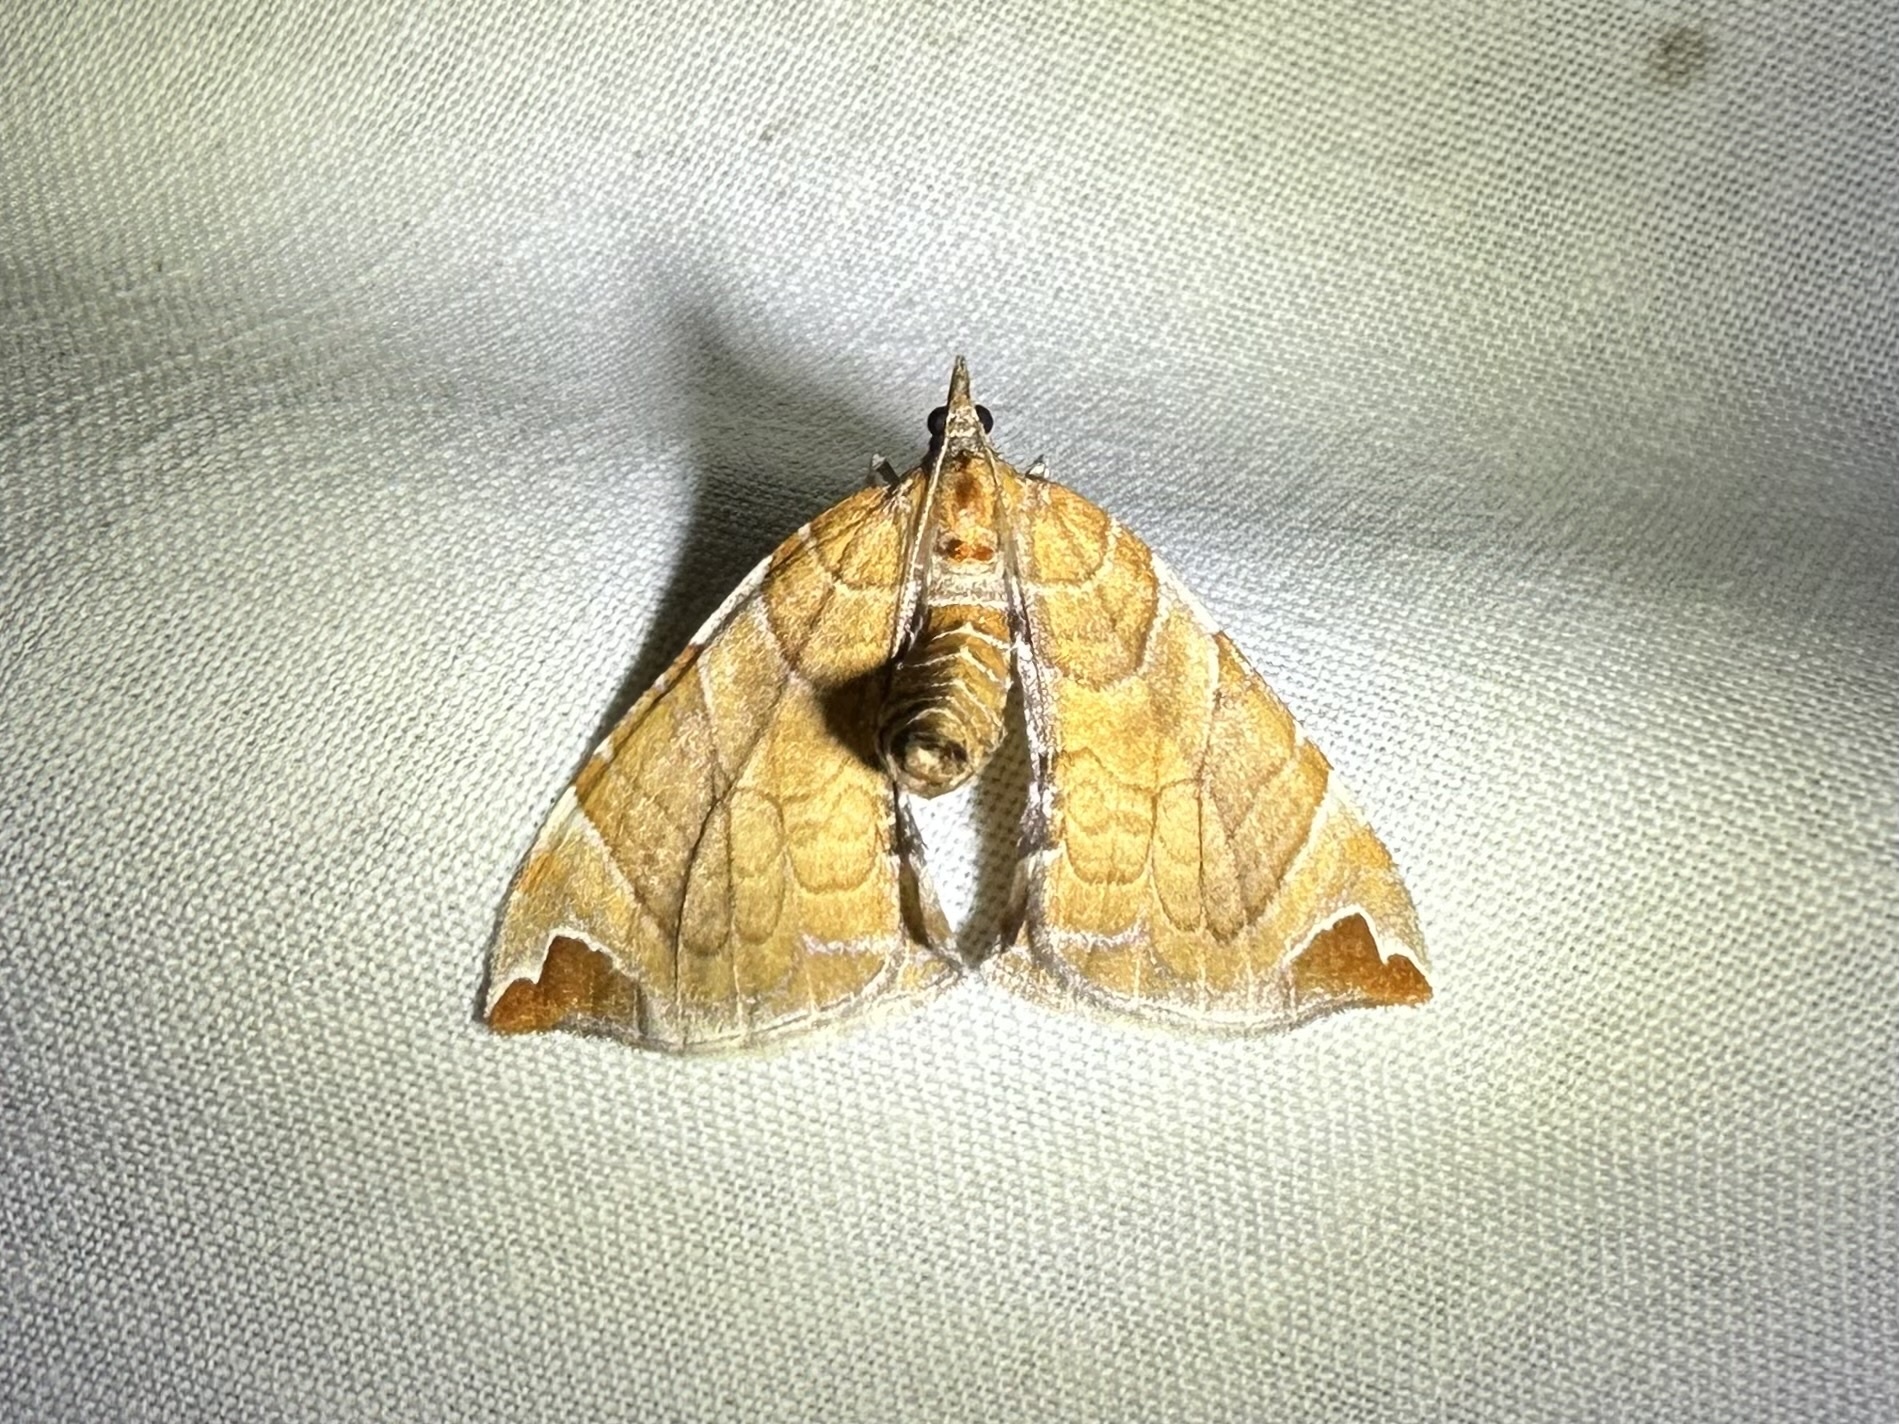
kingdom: Animalia
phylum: Arthropoda
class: Insecta
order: Lepidoptera
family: Geometridae
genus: Eulithis
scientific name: Eulithis molliculata
